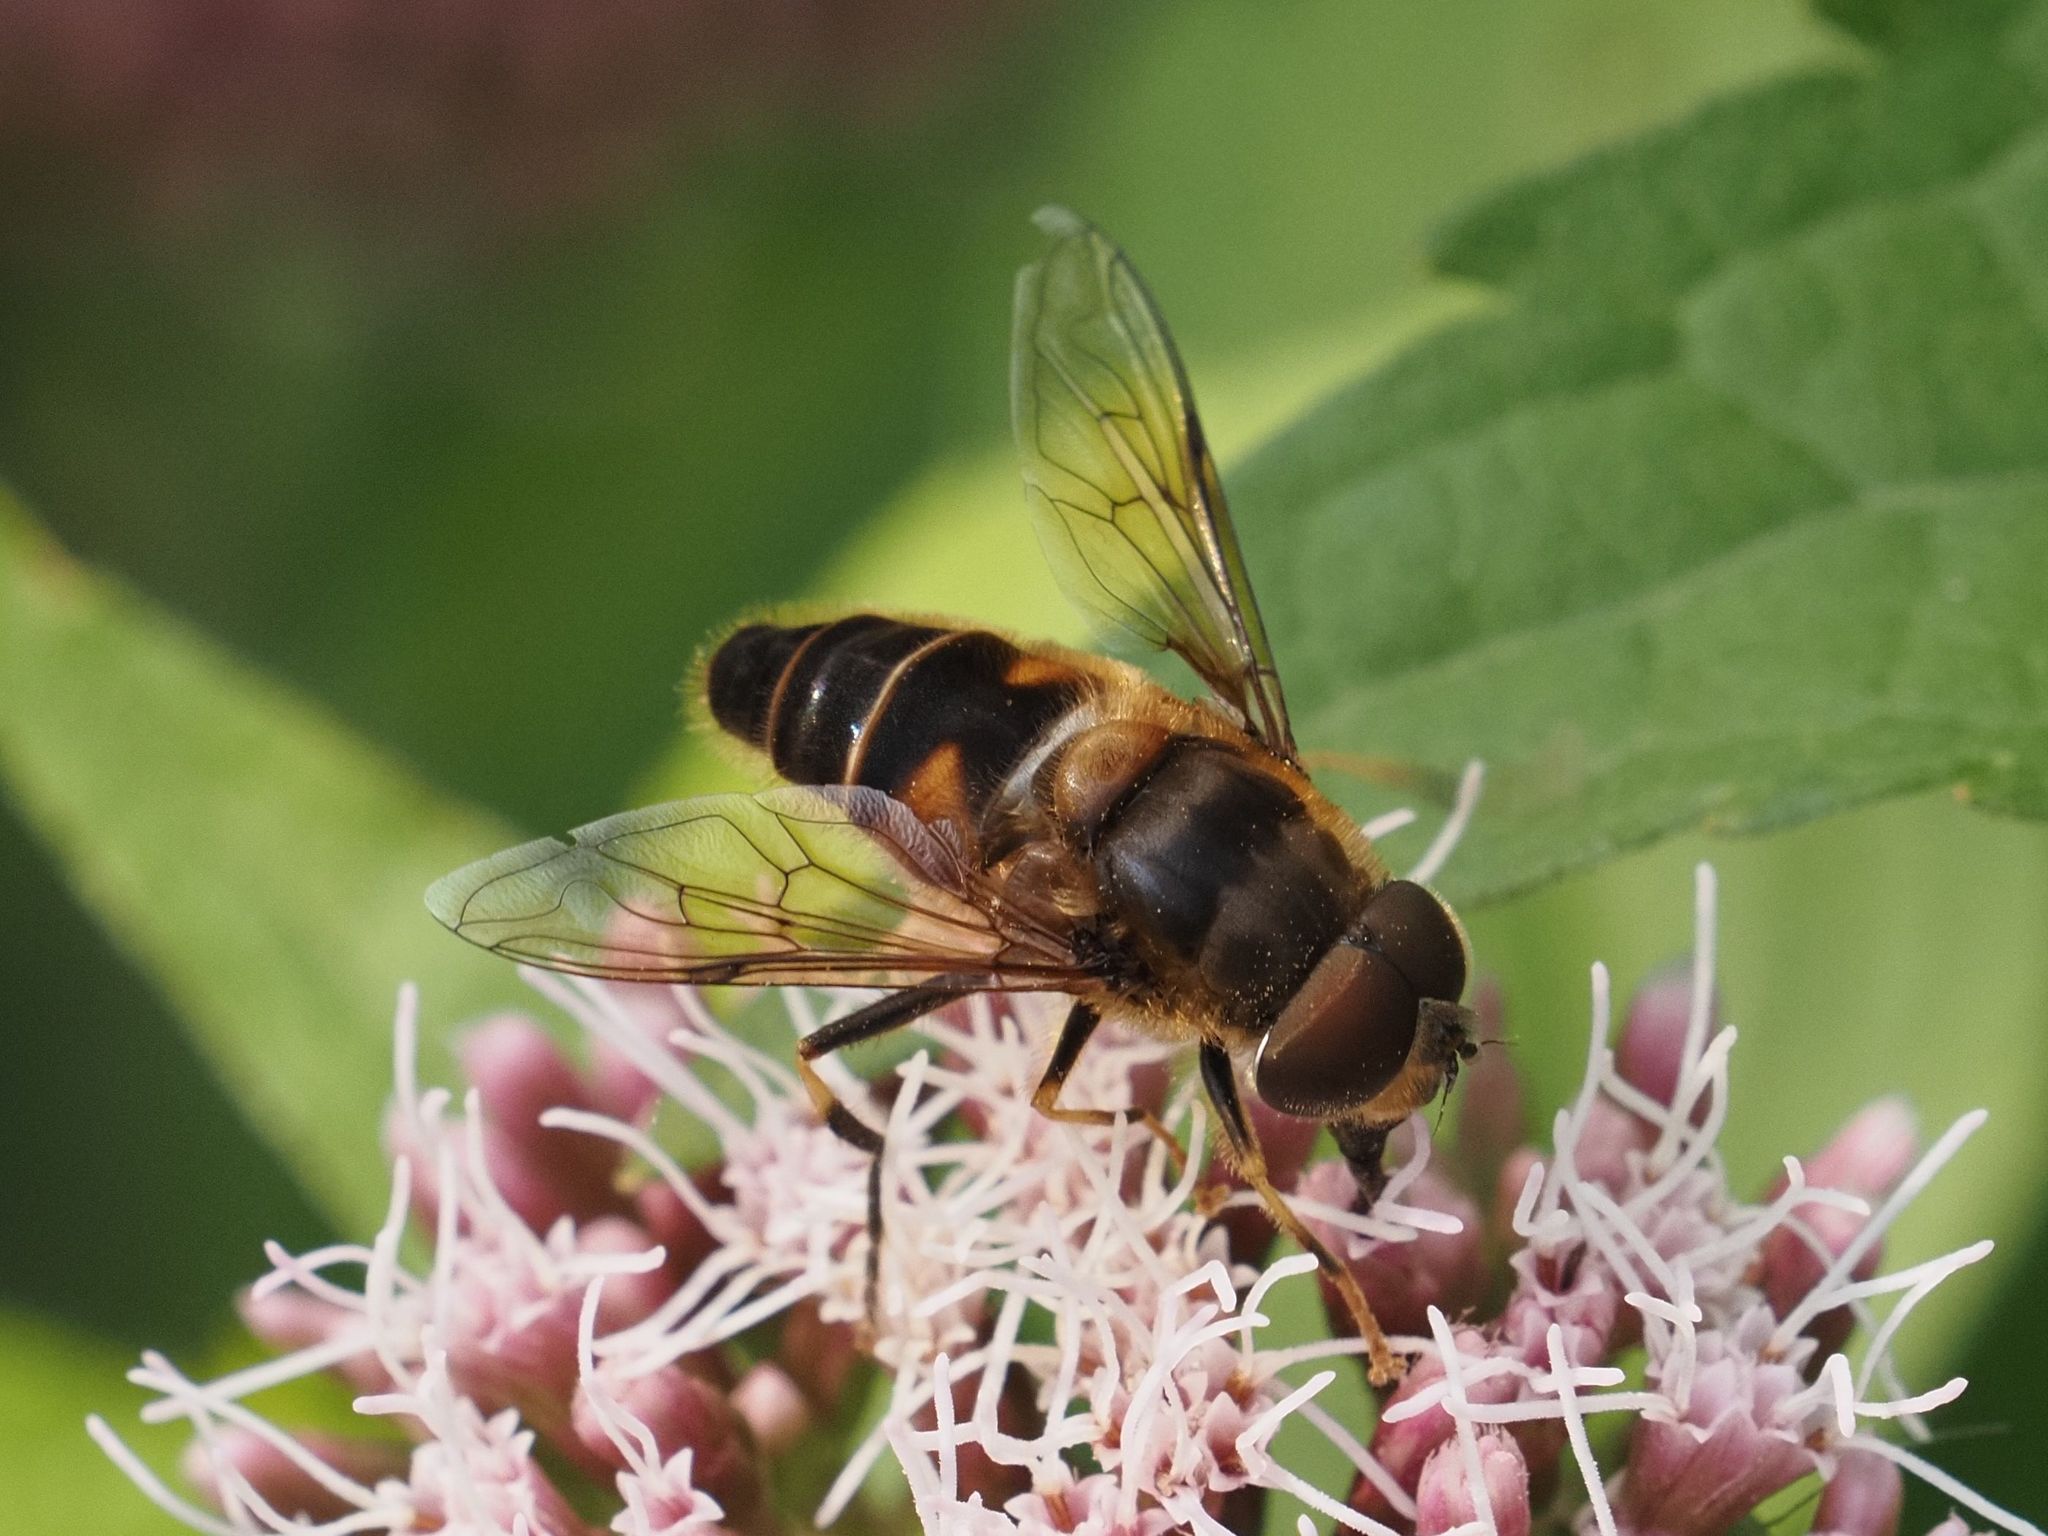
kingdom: Animalia
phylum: Arthropoda
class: Insecta
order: Diptera
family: Syrphidae
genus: Eristalis
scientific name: Eristalis pertinax
